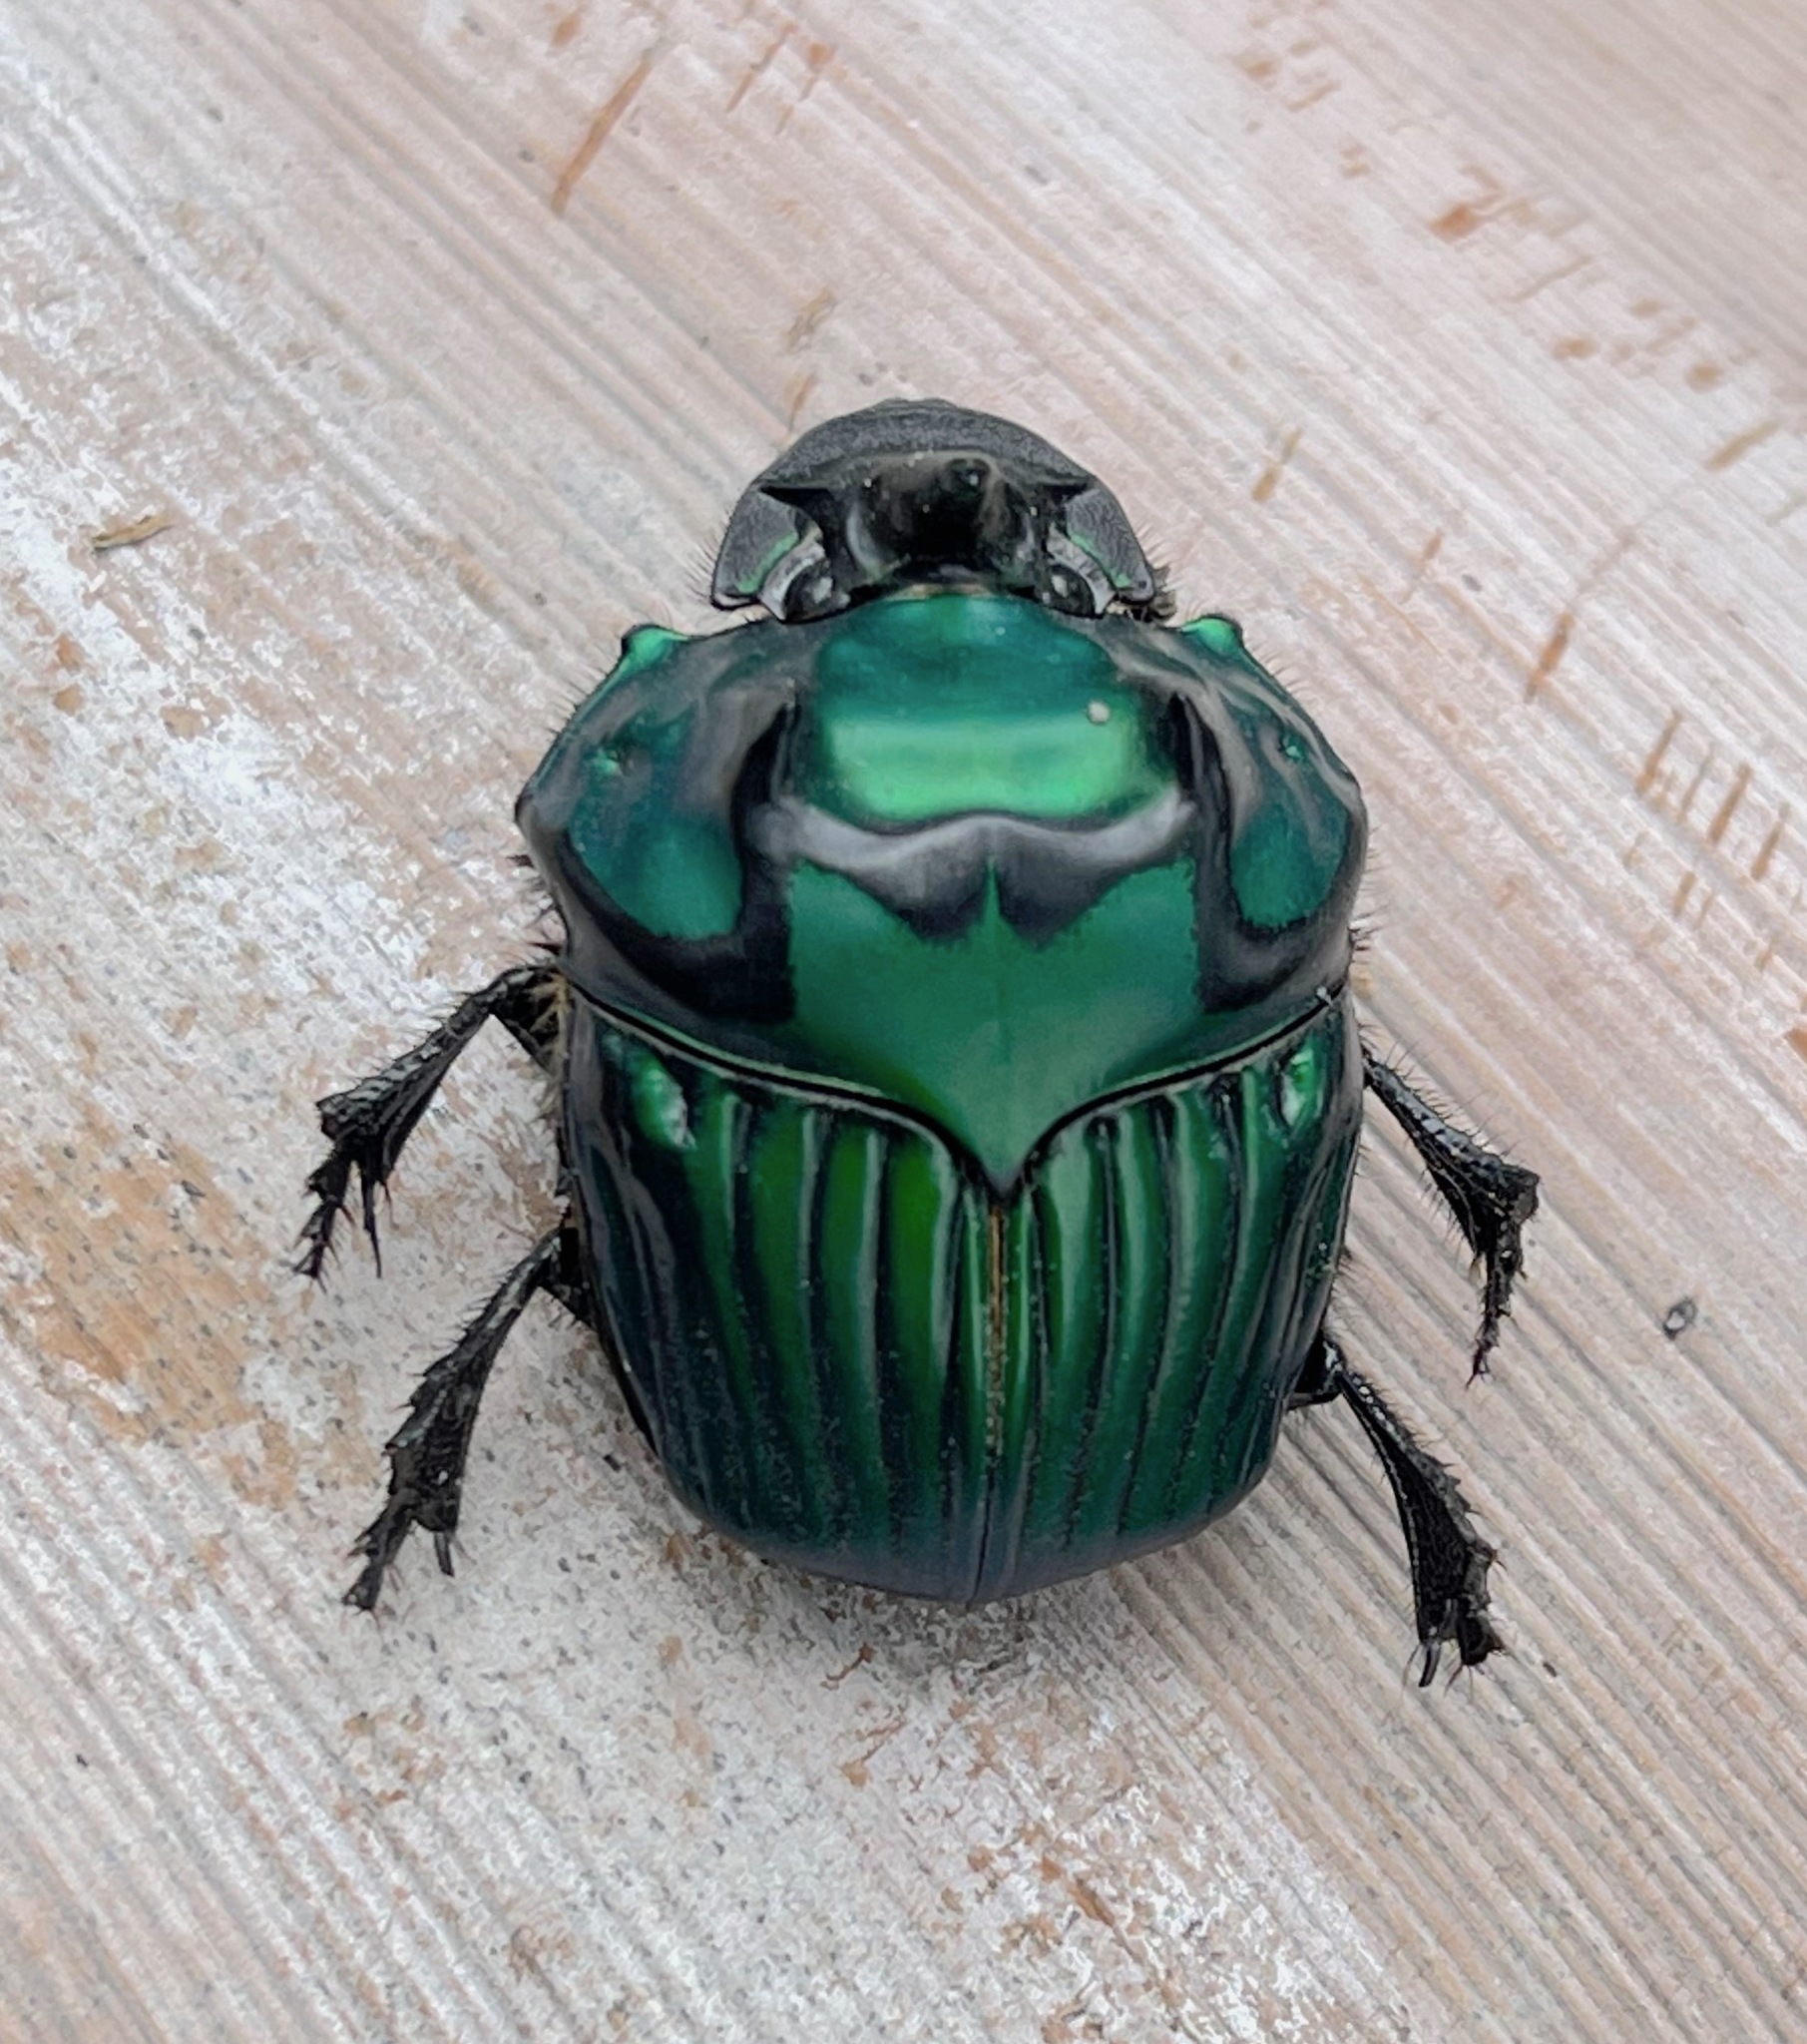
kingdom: Animalia
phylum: Arthropoda
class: Insecta
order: Coleoptera
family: Scarabaeidae
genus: Oxysternon
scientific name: Oxysternon conspicillatum
